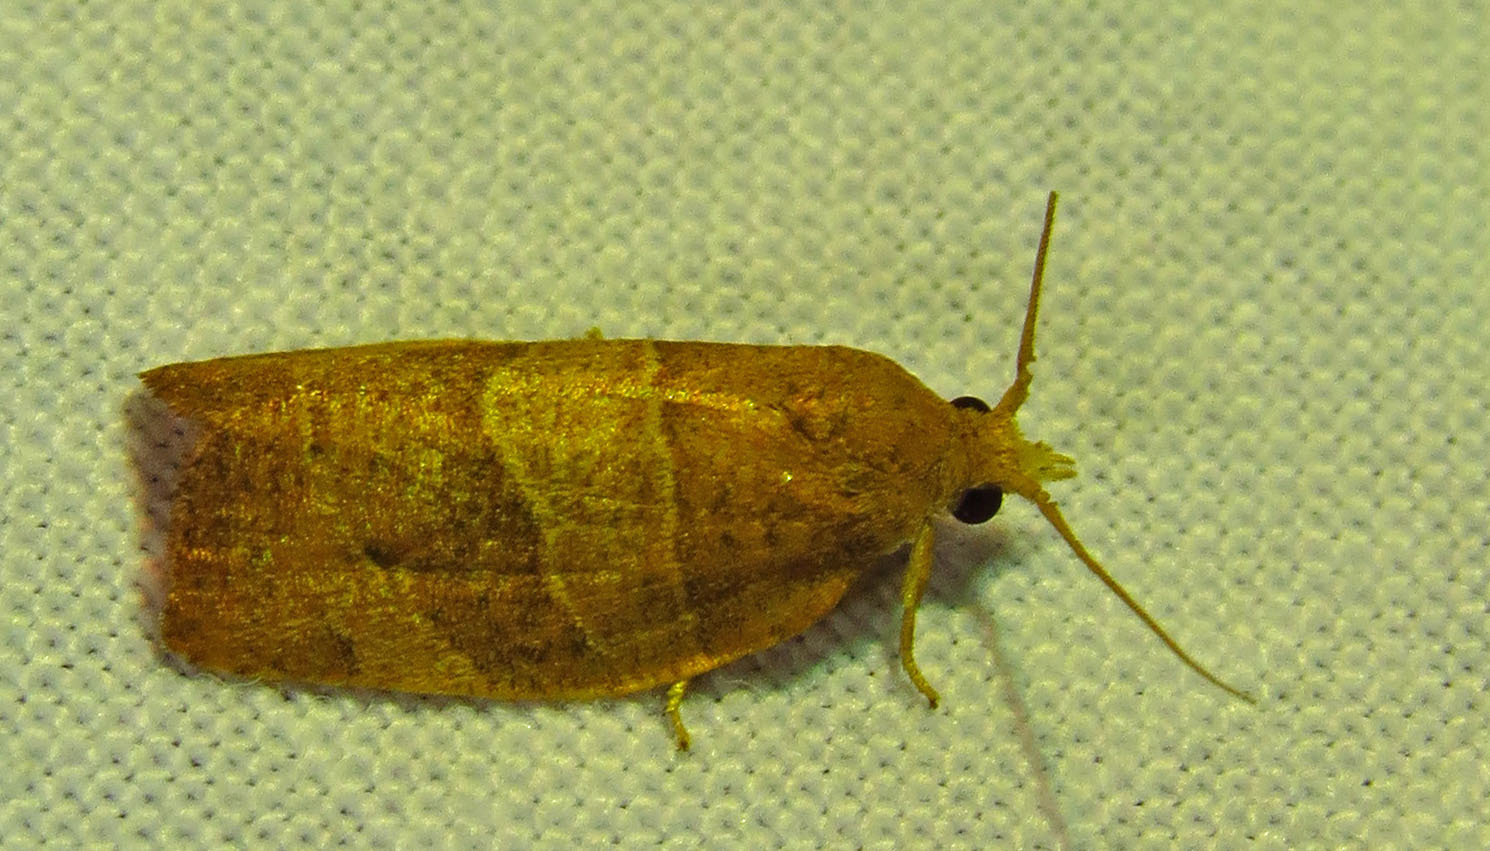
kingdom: Animalia
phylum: Arthropoda
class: Insecta
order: Lepidoptera
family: Tortricidae
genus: Pandemis
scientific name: Pandemis limitata
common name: Three-lined leafroller moth
